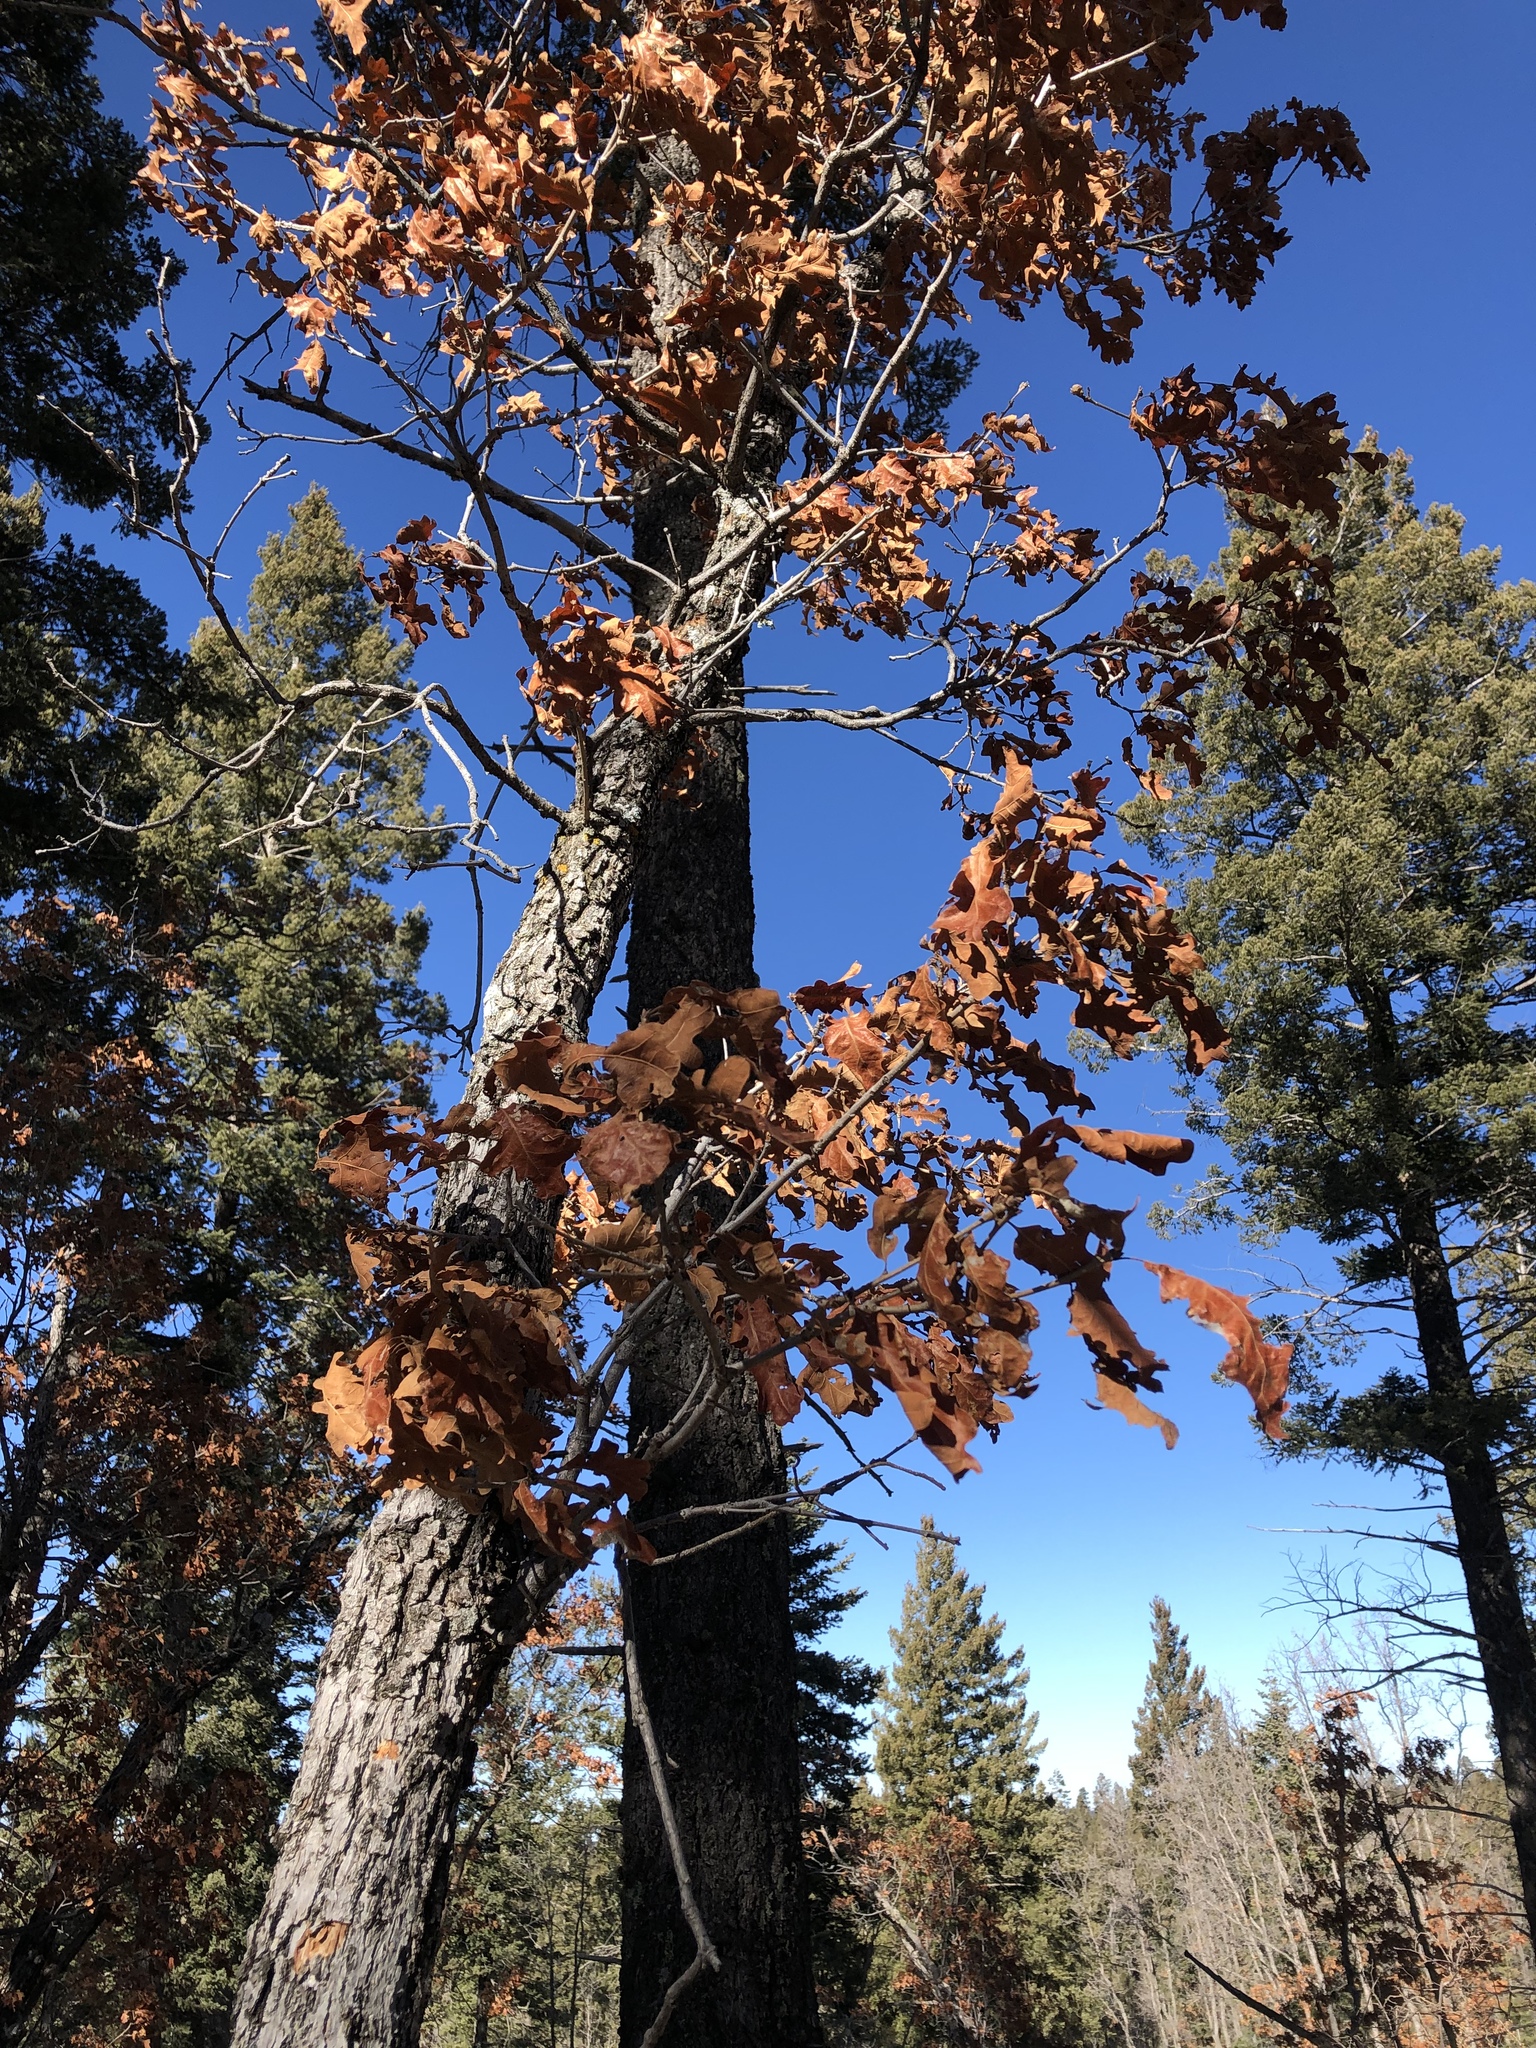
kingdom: Plantae
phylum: Tracheophyta
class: Magnoliopsida
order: Fagales
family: Fagaceae
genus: Quercus
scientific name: Quercus gambelii
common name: Gambel oak
